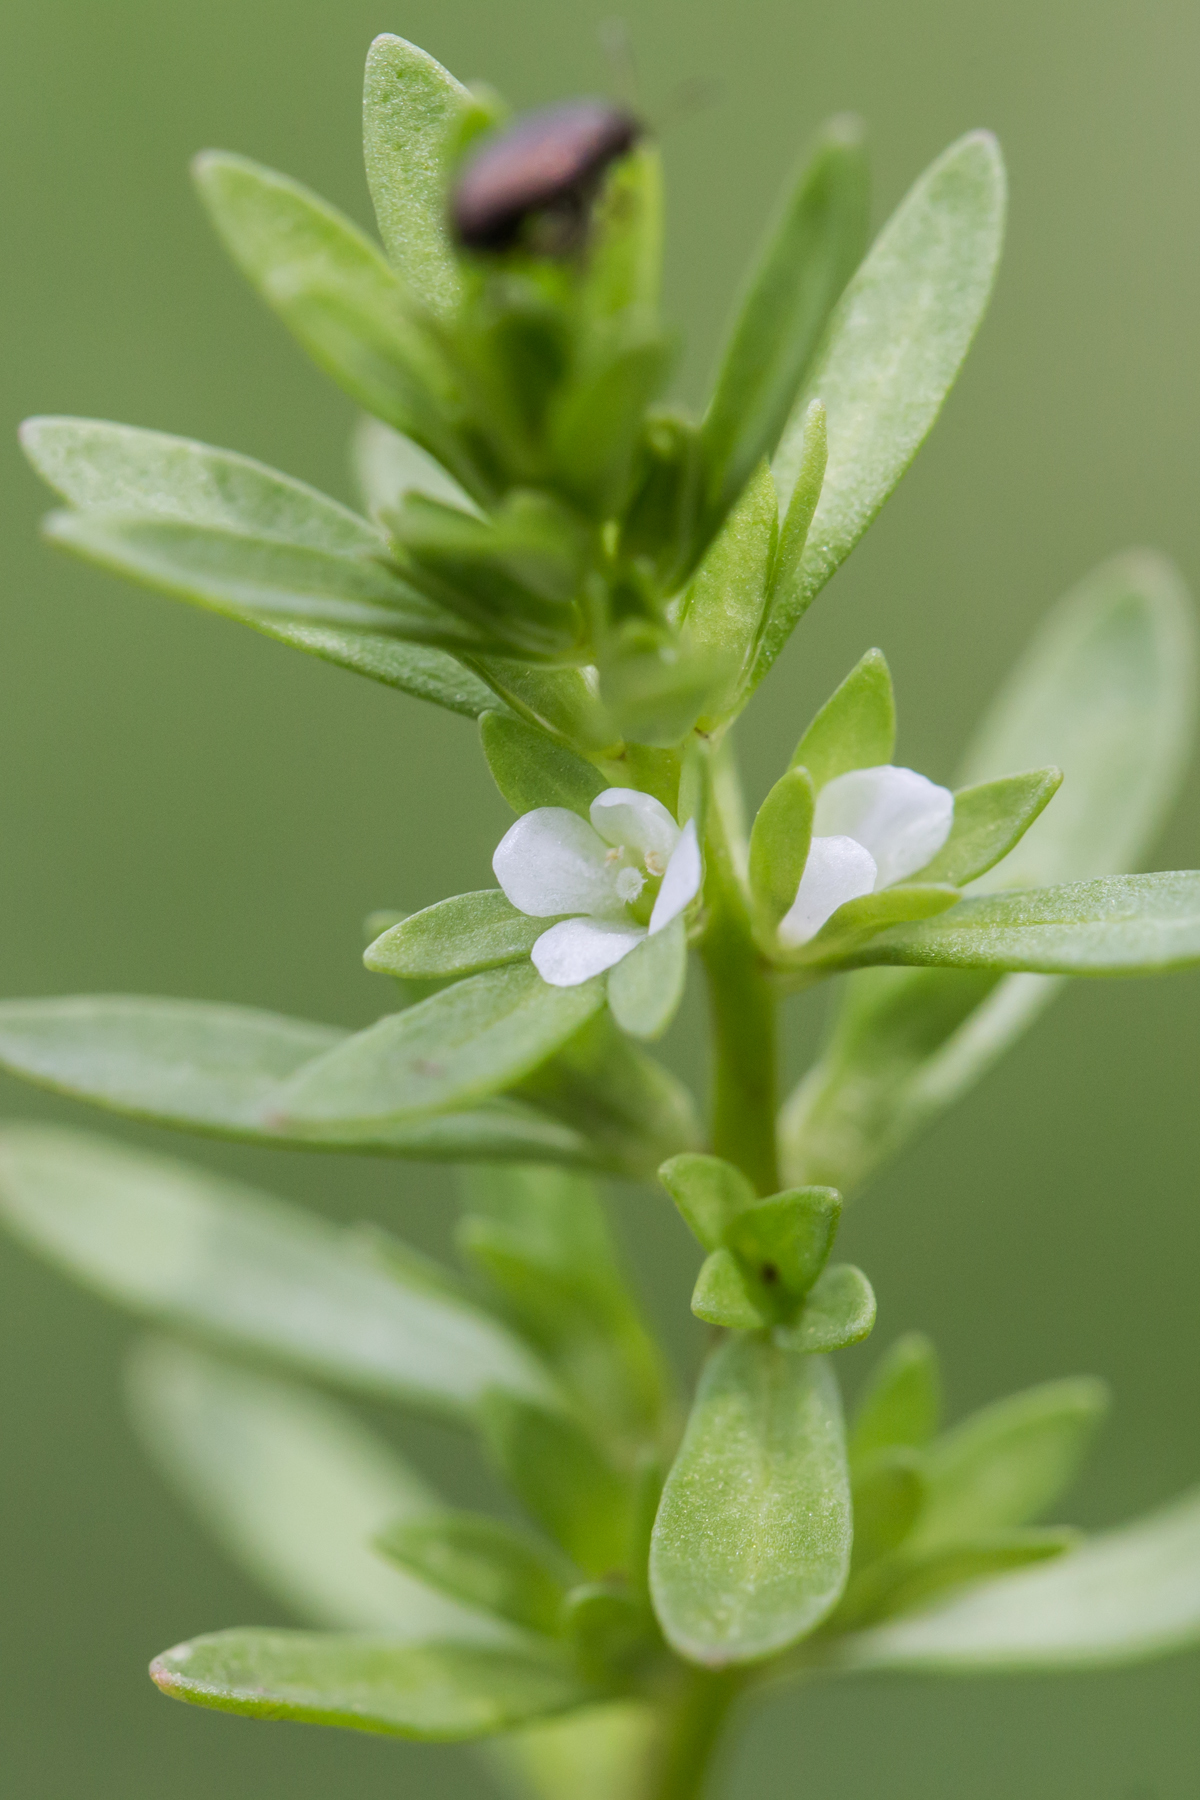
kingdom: Plantae
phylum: Tracheophyta
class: Magnoliopsida
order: Lamiales
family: Plantaginaceae
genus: Veronica
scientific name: Veronica peregrina
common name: Neckweed
